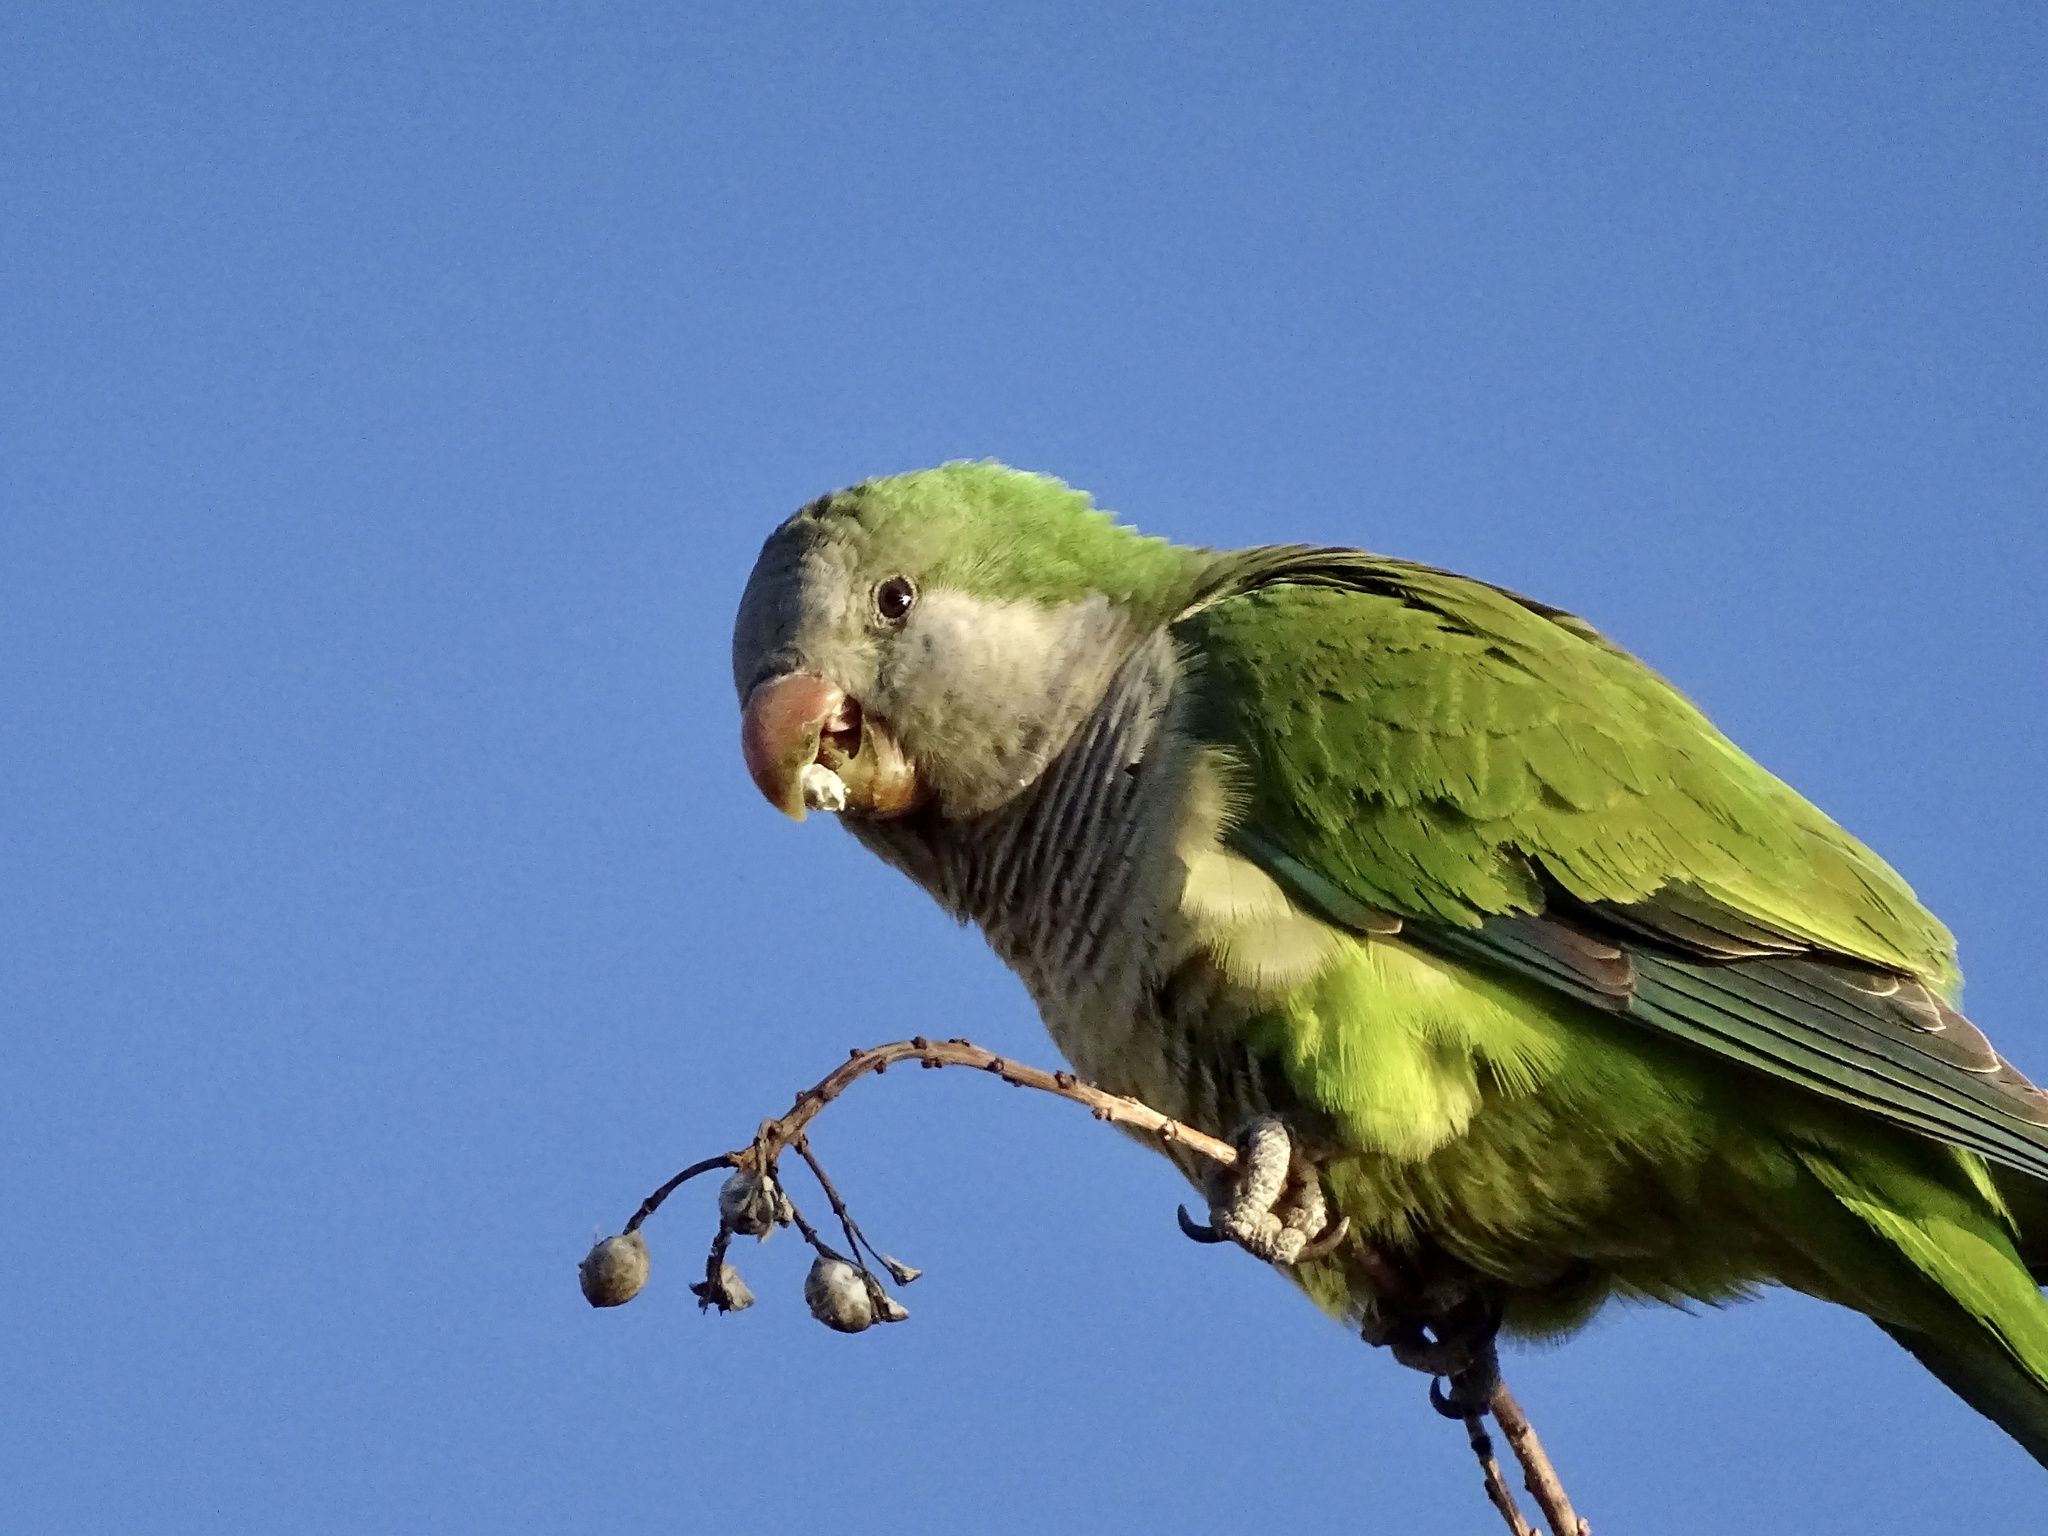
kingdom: Animalia
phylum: Chordata
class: Aves
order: Psittaciformes
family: Psittacidae
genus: Myiopsitta
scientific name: Myiopsitta monachus
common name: Monk parakeet
